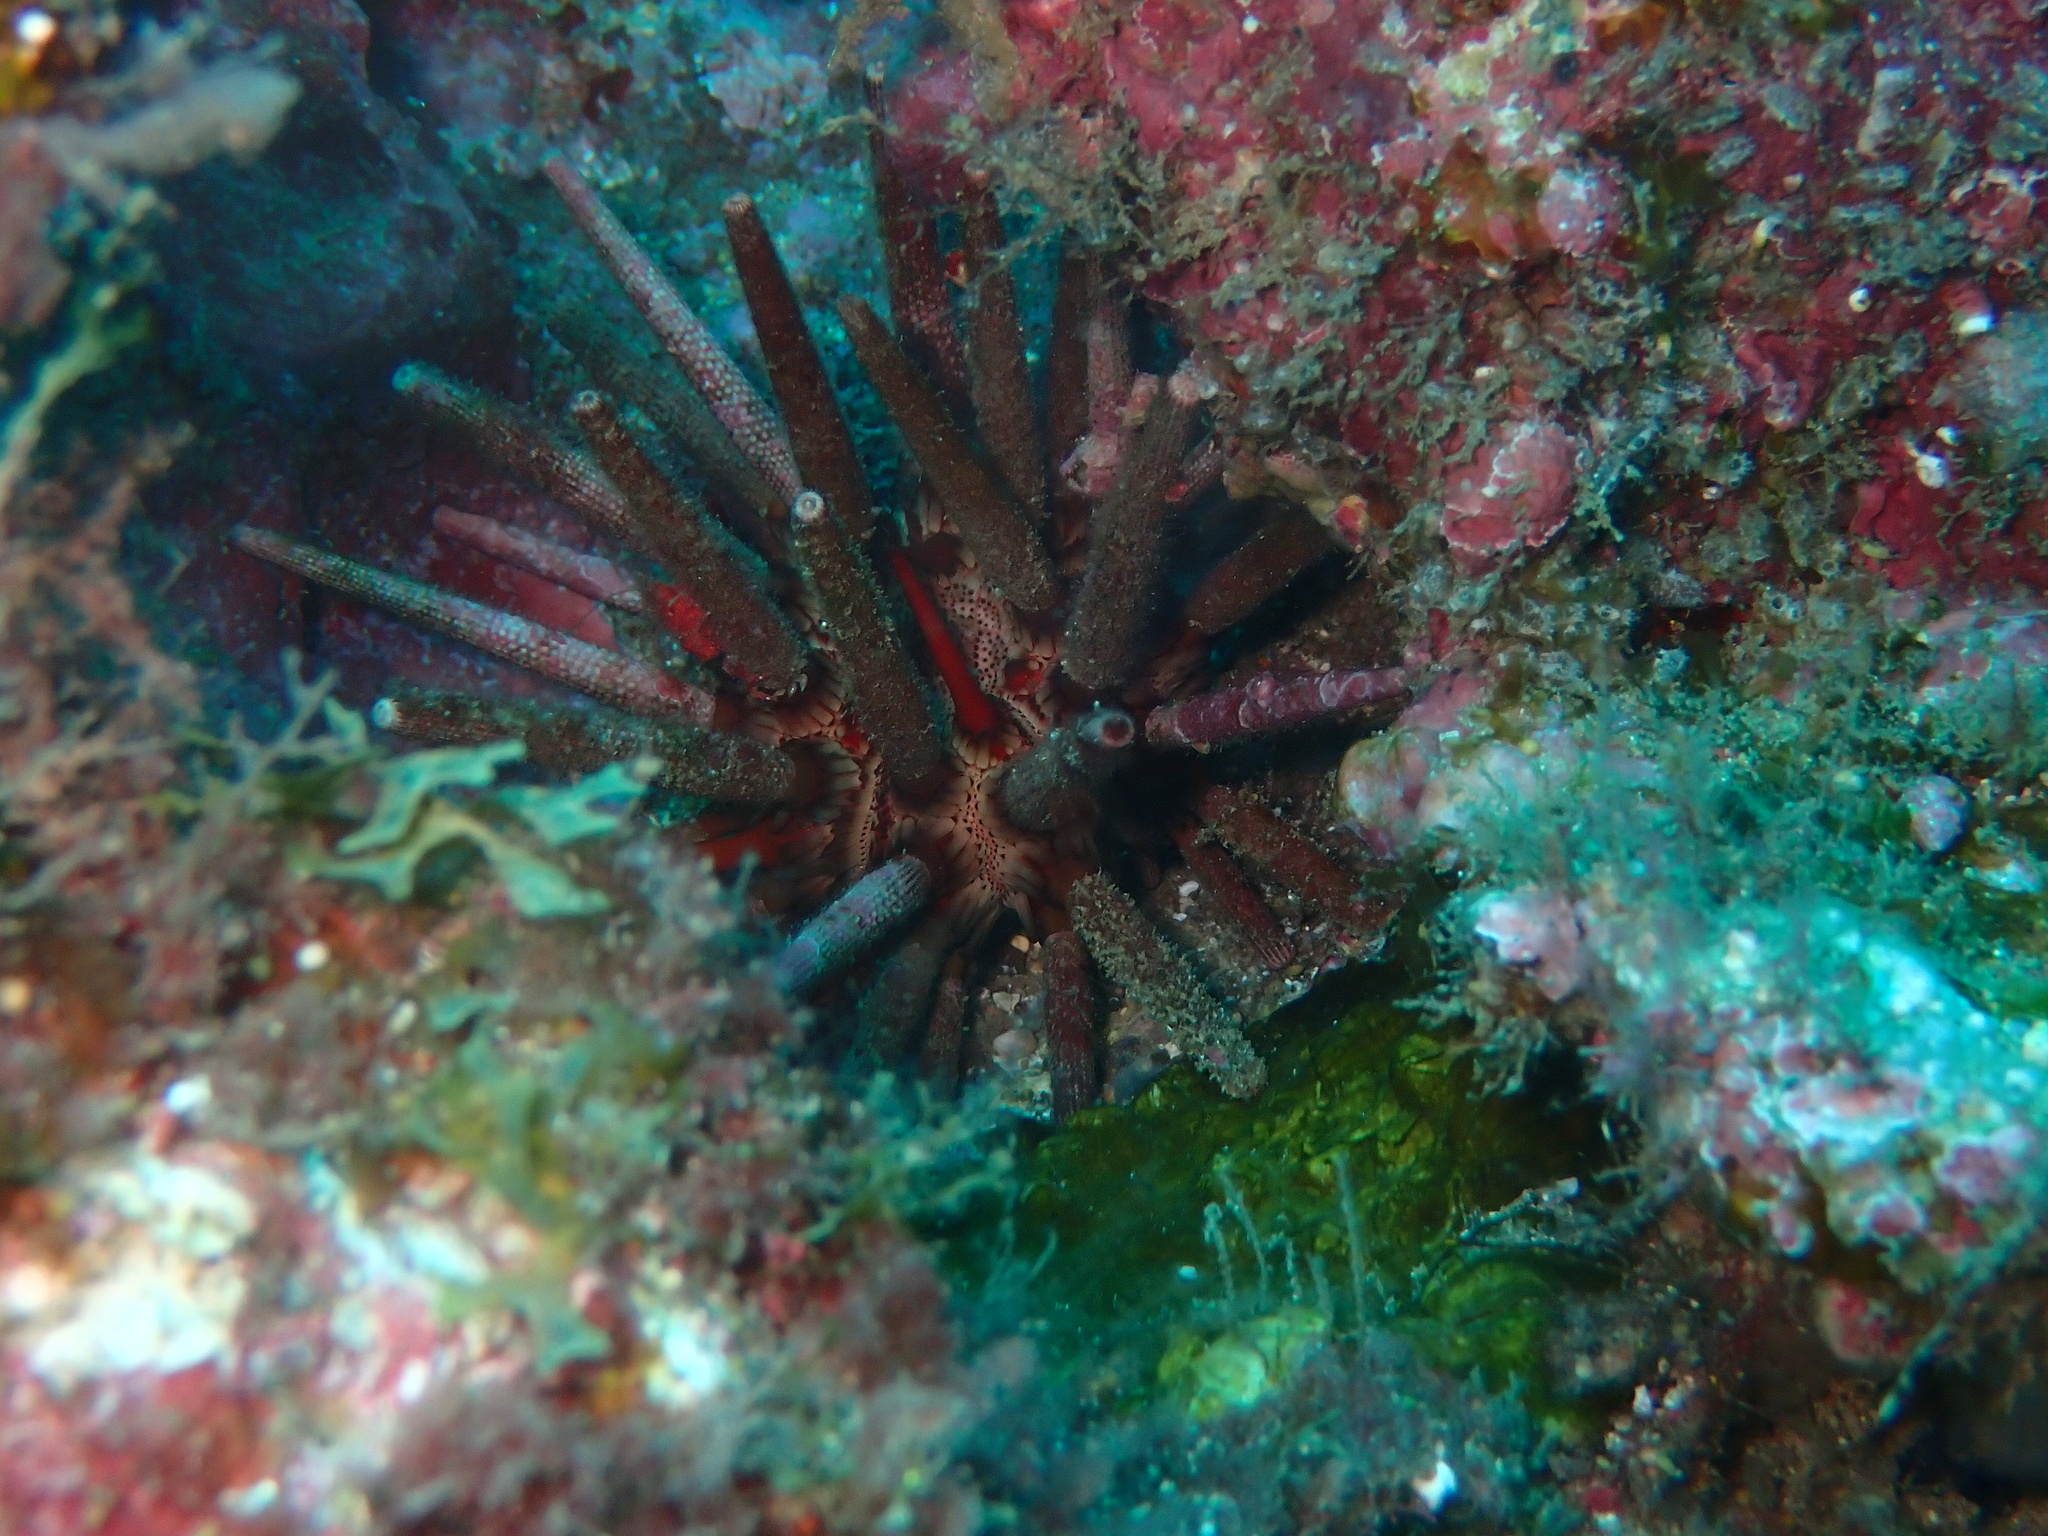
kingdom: Animalia
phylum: Echinodermata
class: Echinoidea
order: Cidaroida
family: Cidaridae
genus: Eucidaris
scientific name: Eucidaris tribuloides
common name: Slate pencil urchin
